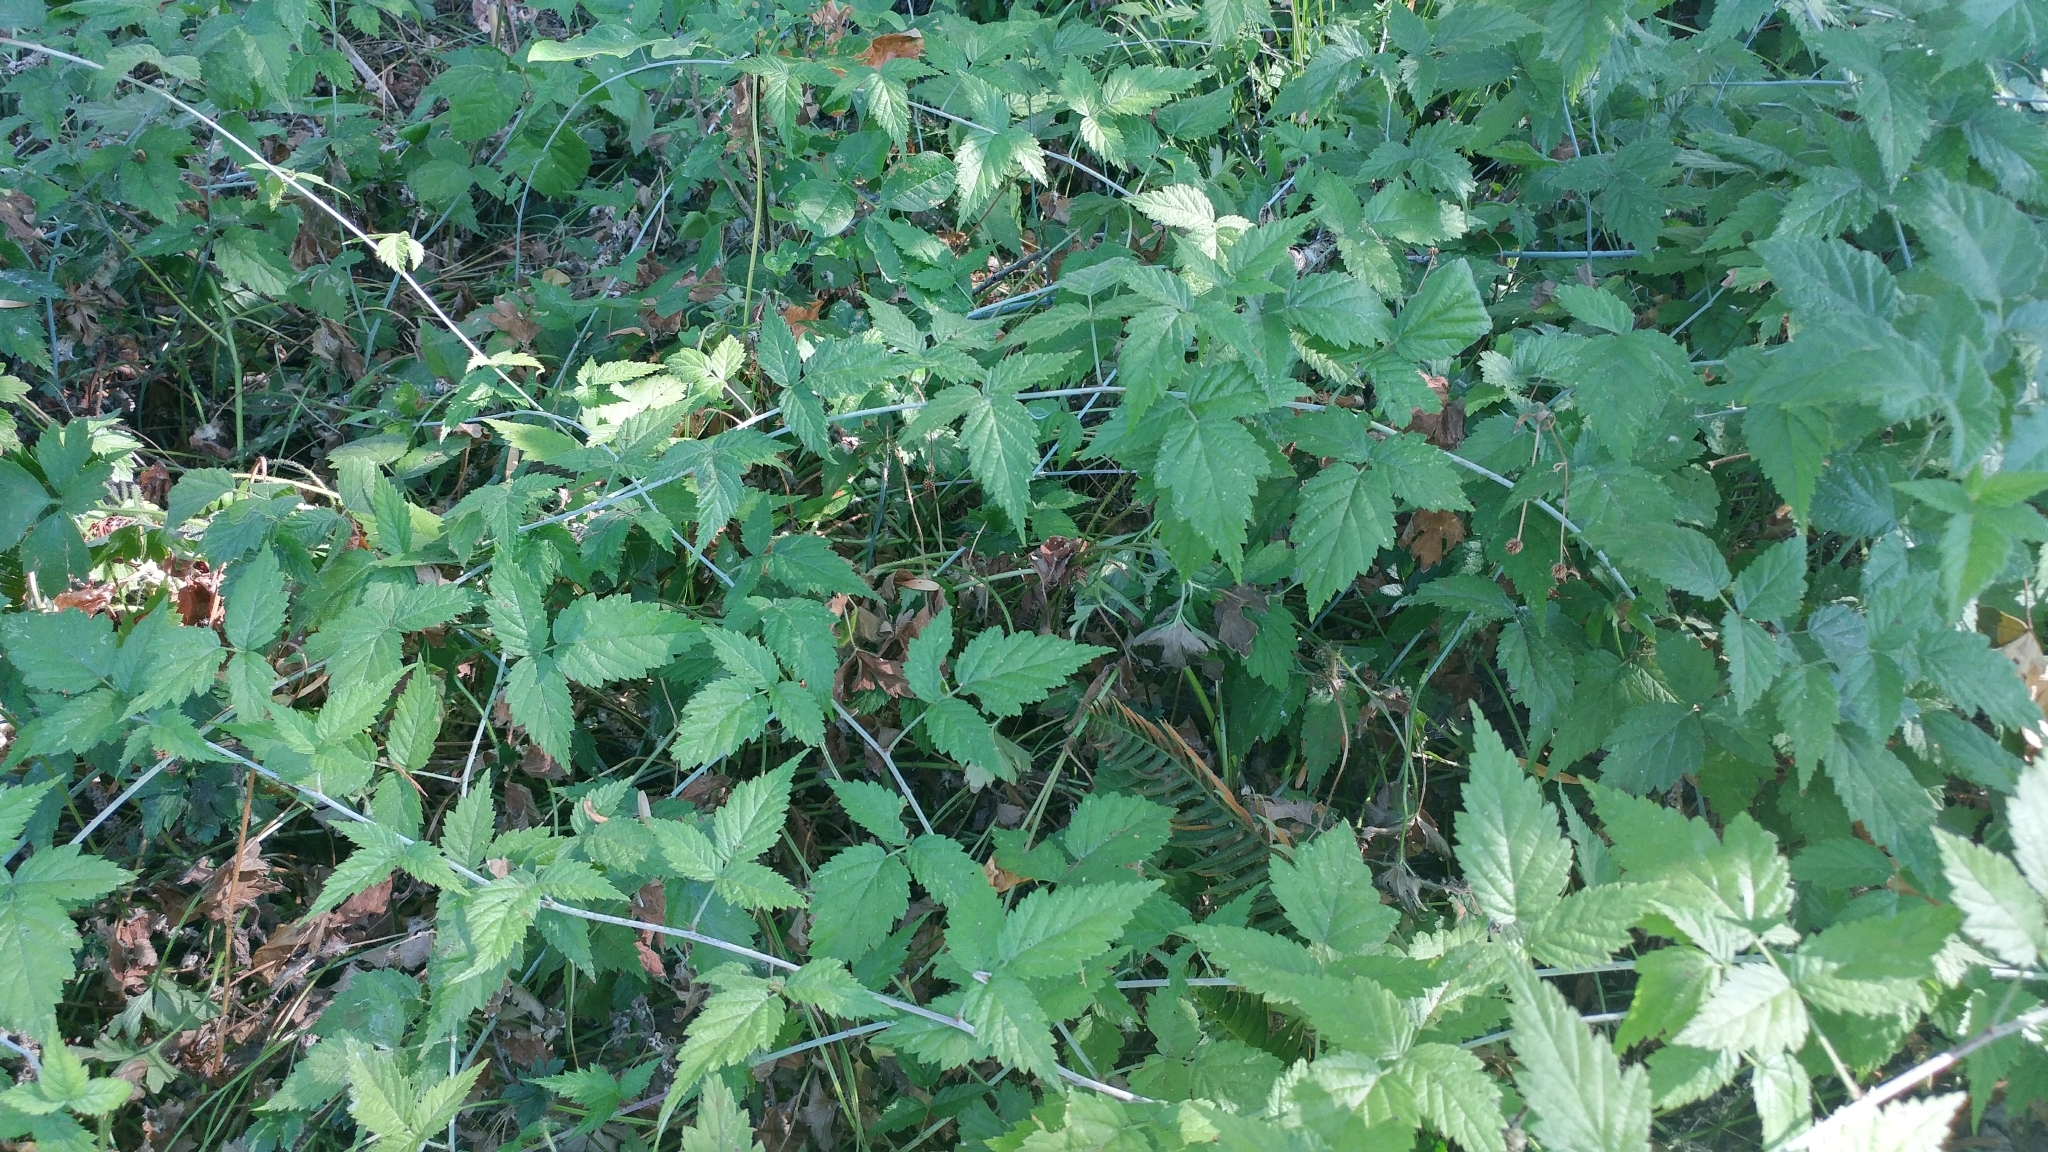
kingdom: Plantae
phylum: Tracheophyta
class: Magnoliopsida
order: Rosales
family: Rosaceae
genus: Rubus
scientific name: Rubus ursinus
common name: Pacific blackberry
